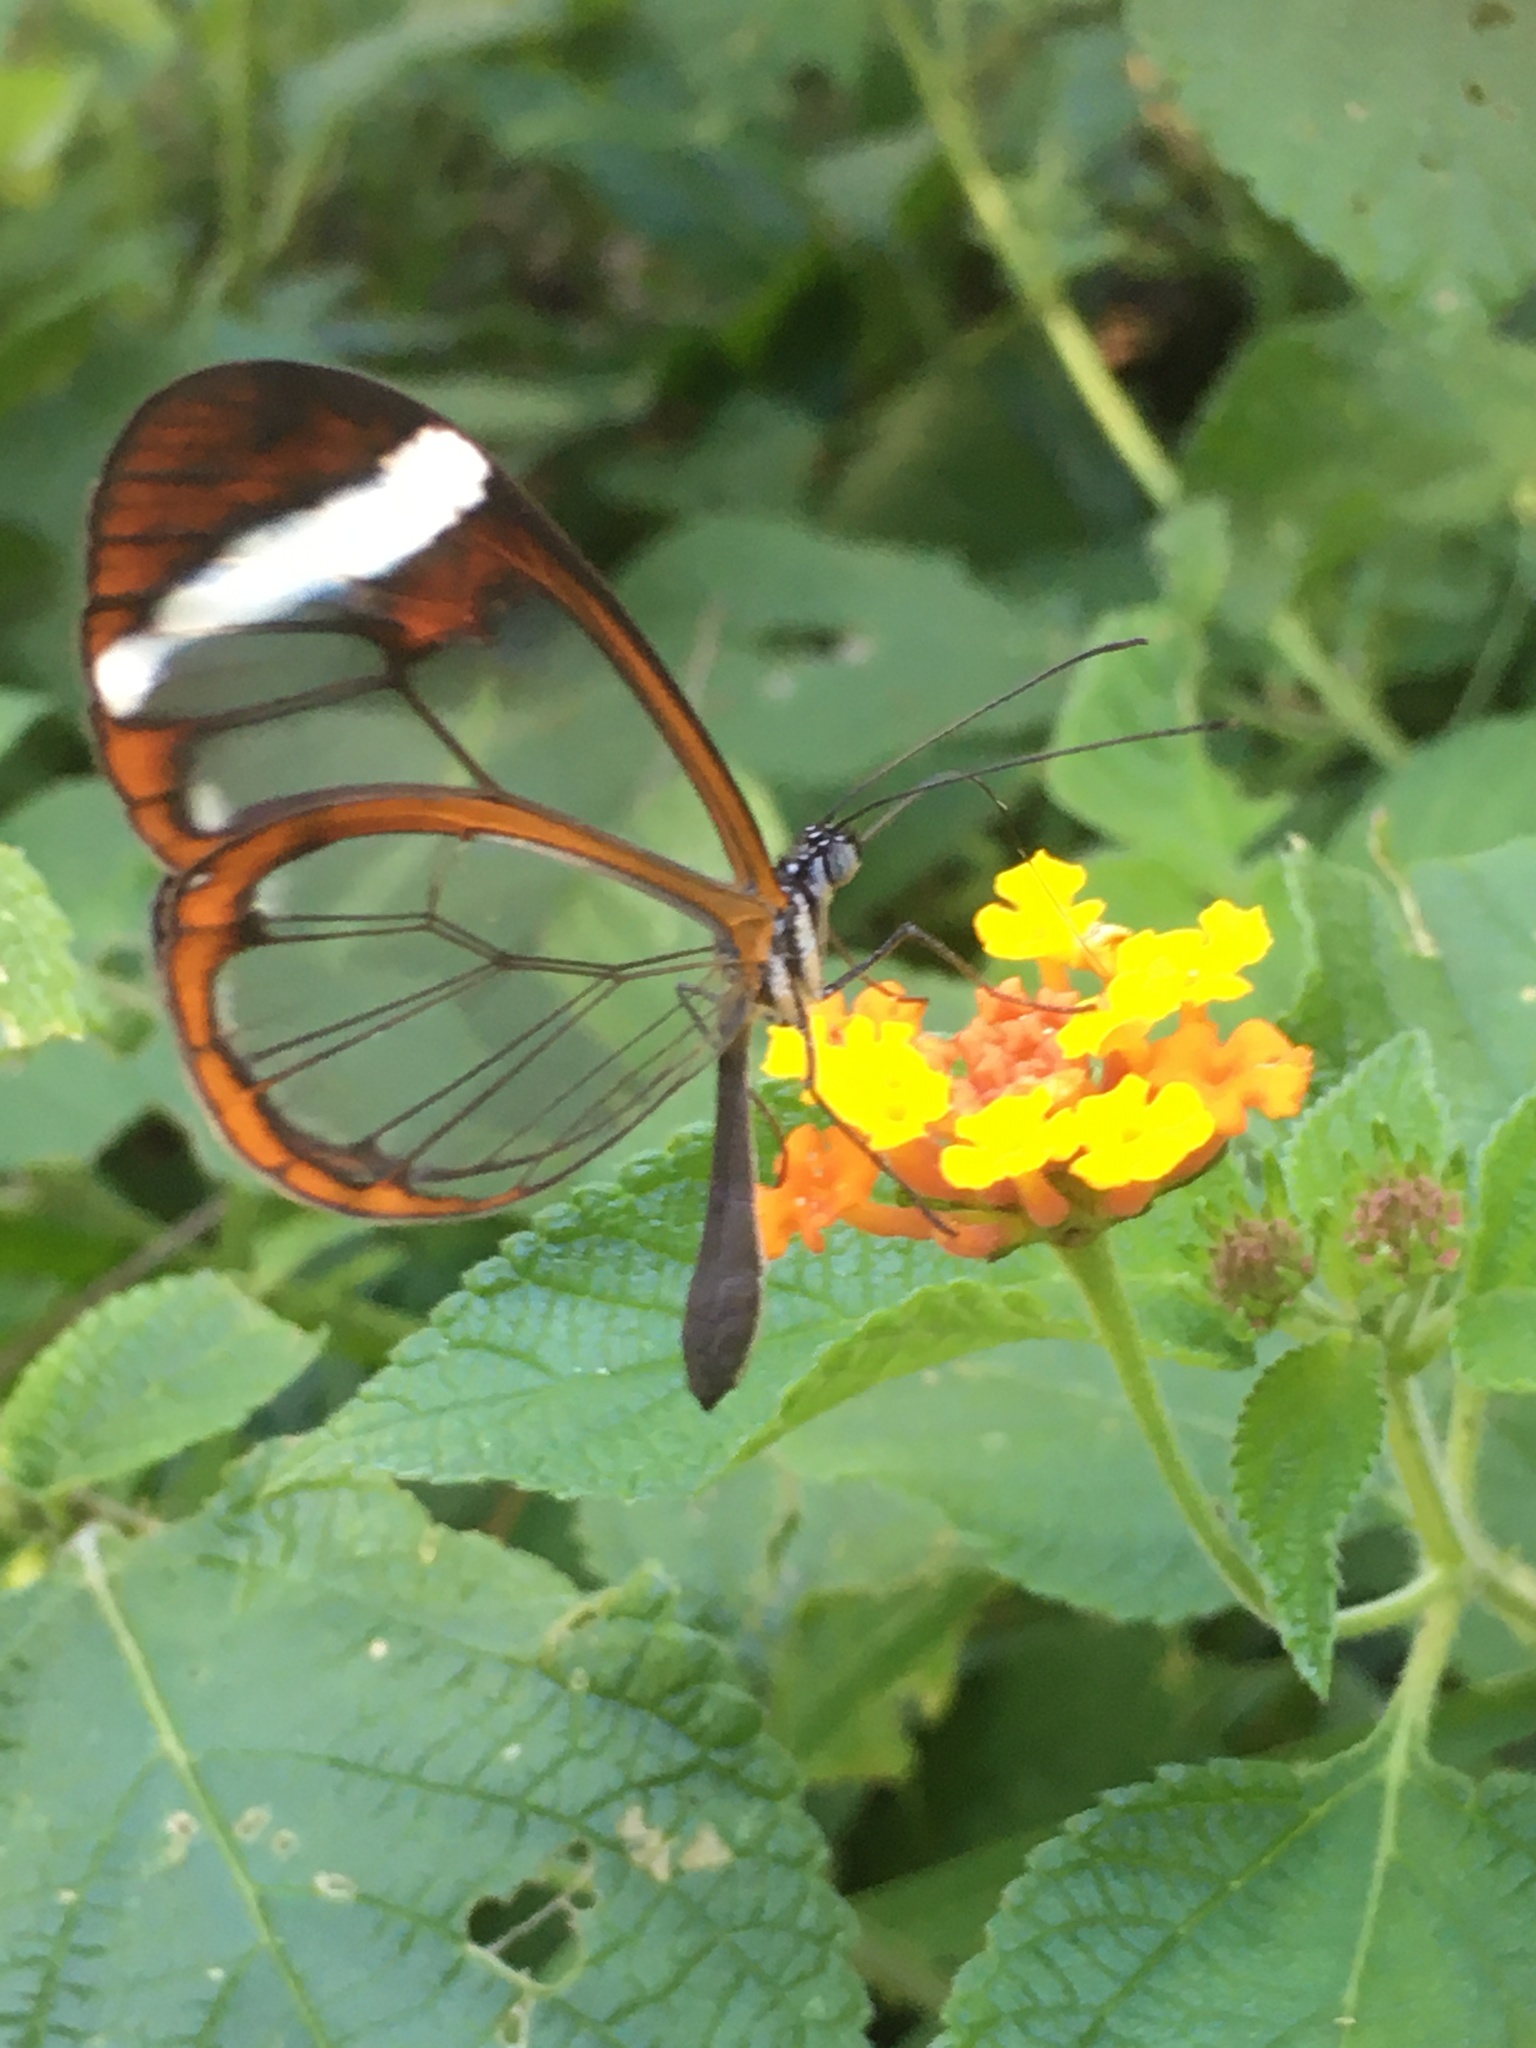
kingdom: Animalia
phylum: Arthropoda
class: Insecta
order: Lepidoptera
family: Nymphalidae
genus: Greta
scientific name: Greta morgane
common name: Thick-tipped greta
